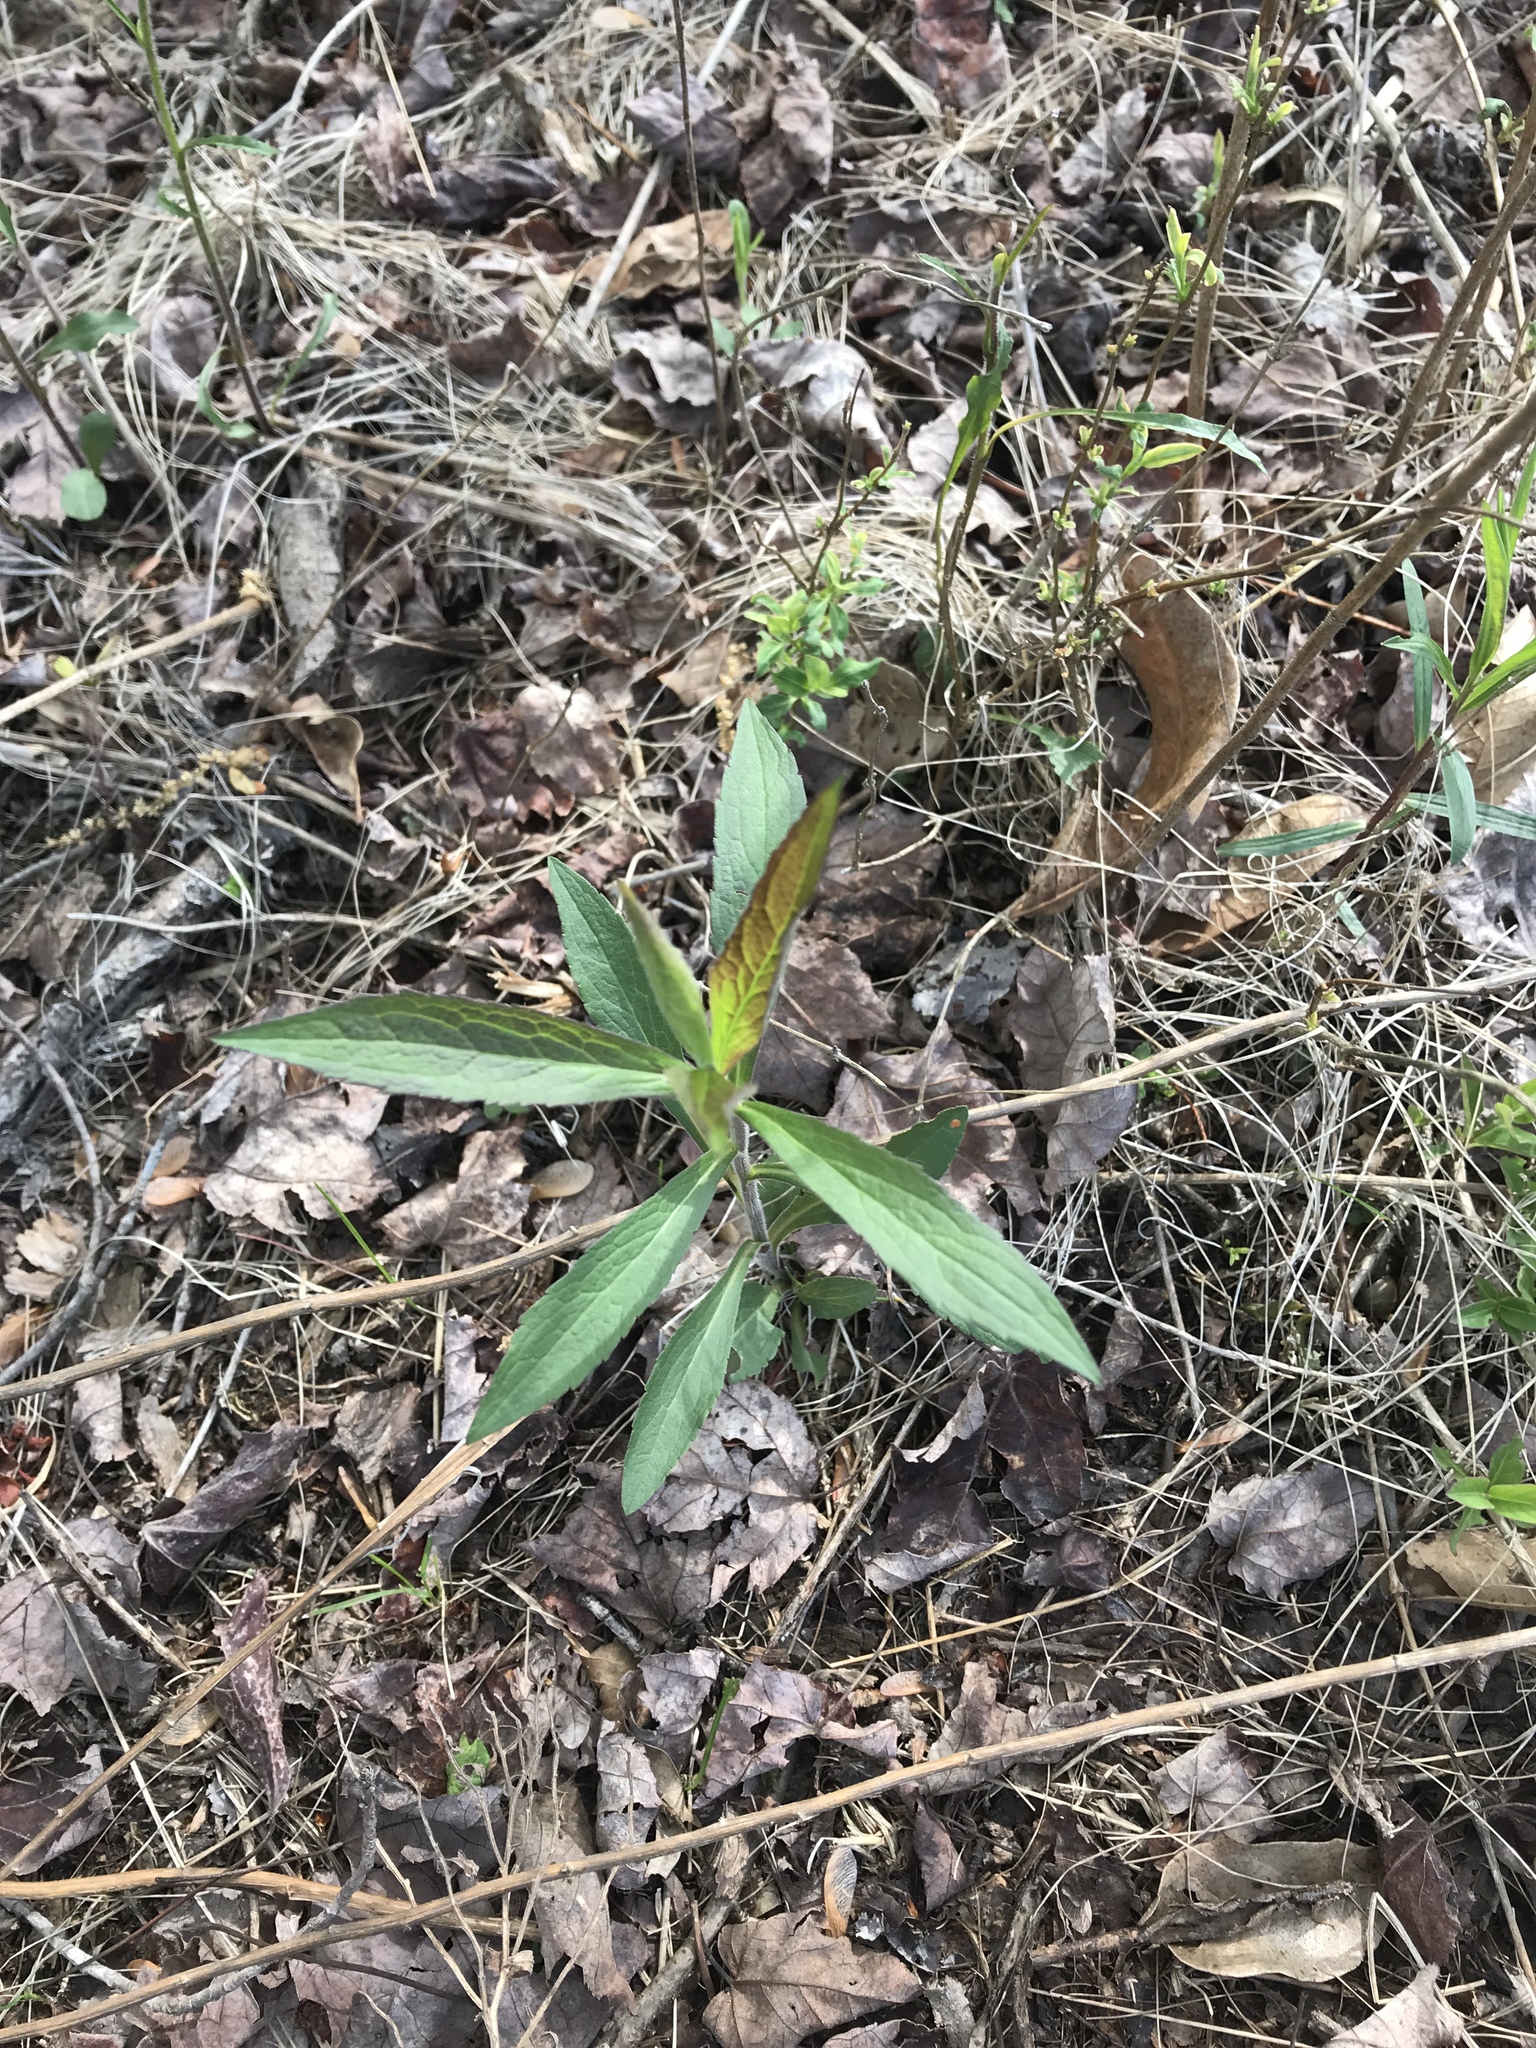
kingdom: Plantae
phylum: Tracheophyta
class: Magnoliopsida
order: Asterales
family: Asteraceae
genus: Solidago
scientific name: Solidago rugosa
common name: Rough-stemmed goldenrod
